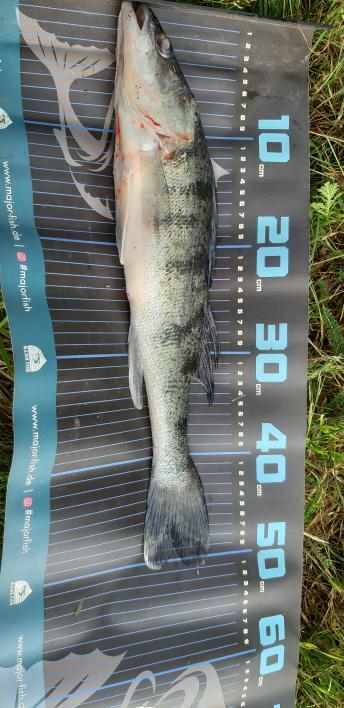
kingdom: Animalia
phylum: Chordata
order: Perciformes
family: Percidae
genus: Sander
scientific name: Sander volgensis
